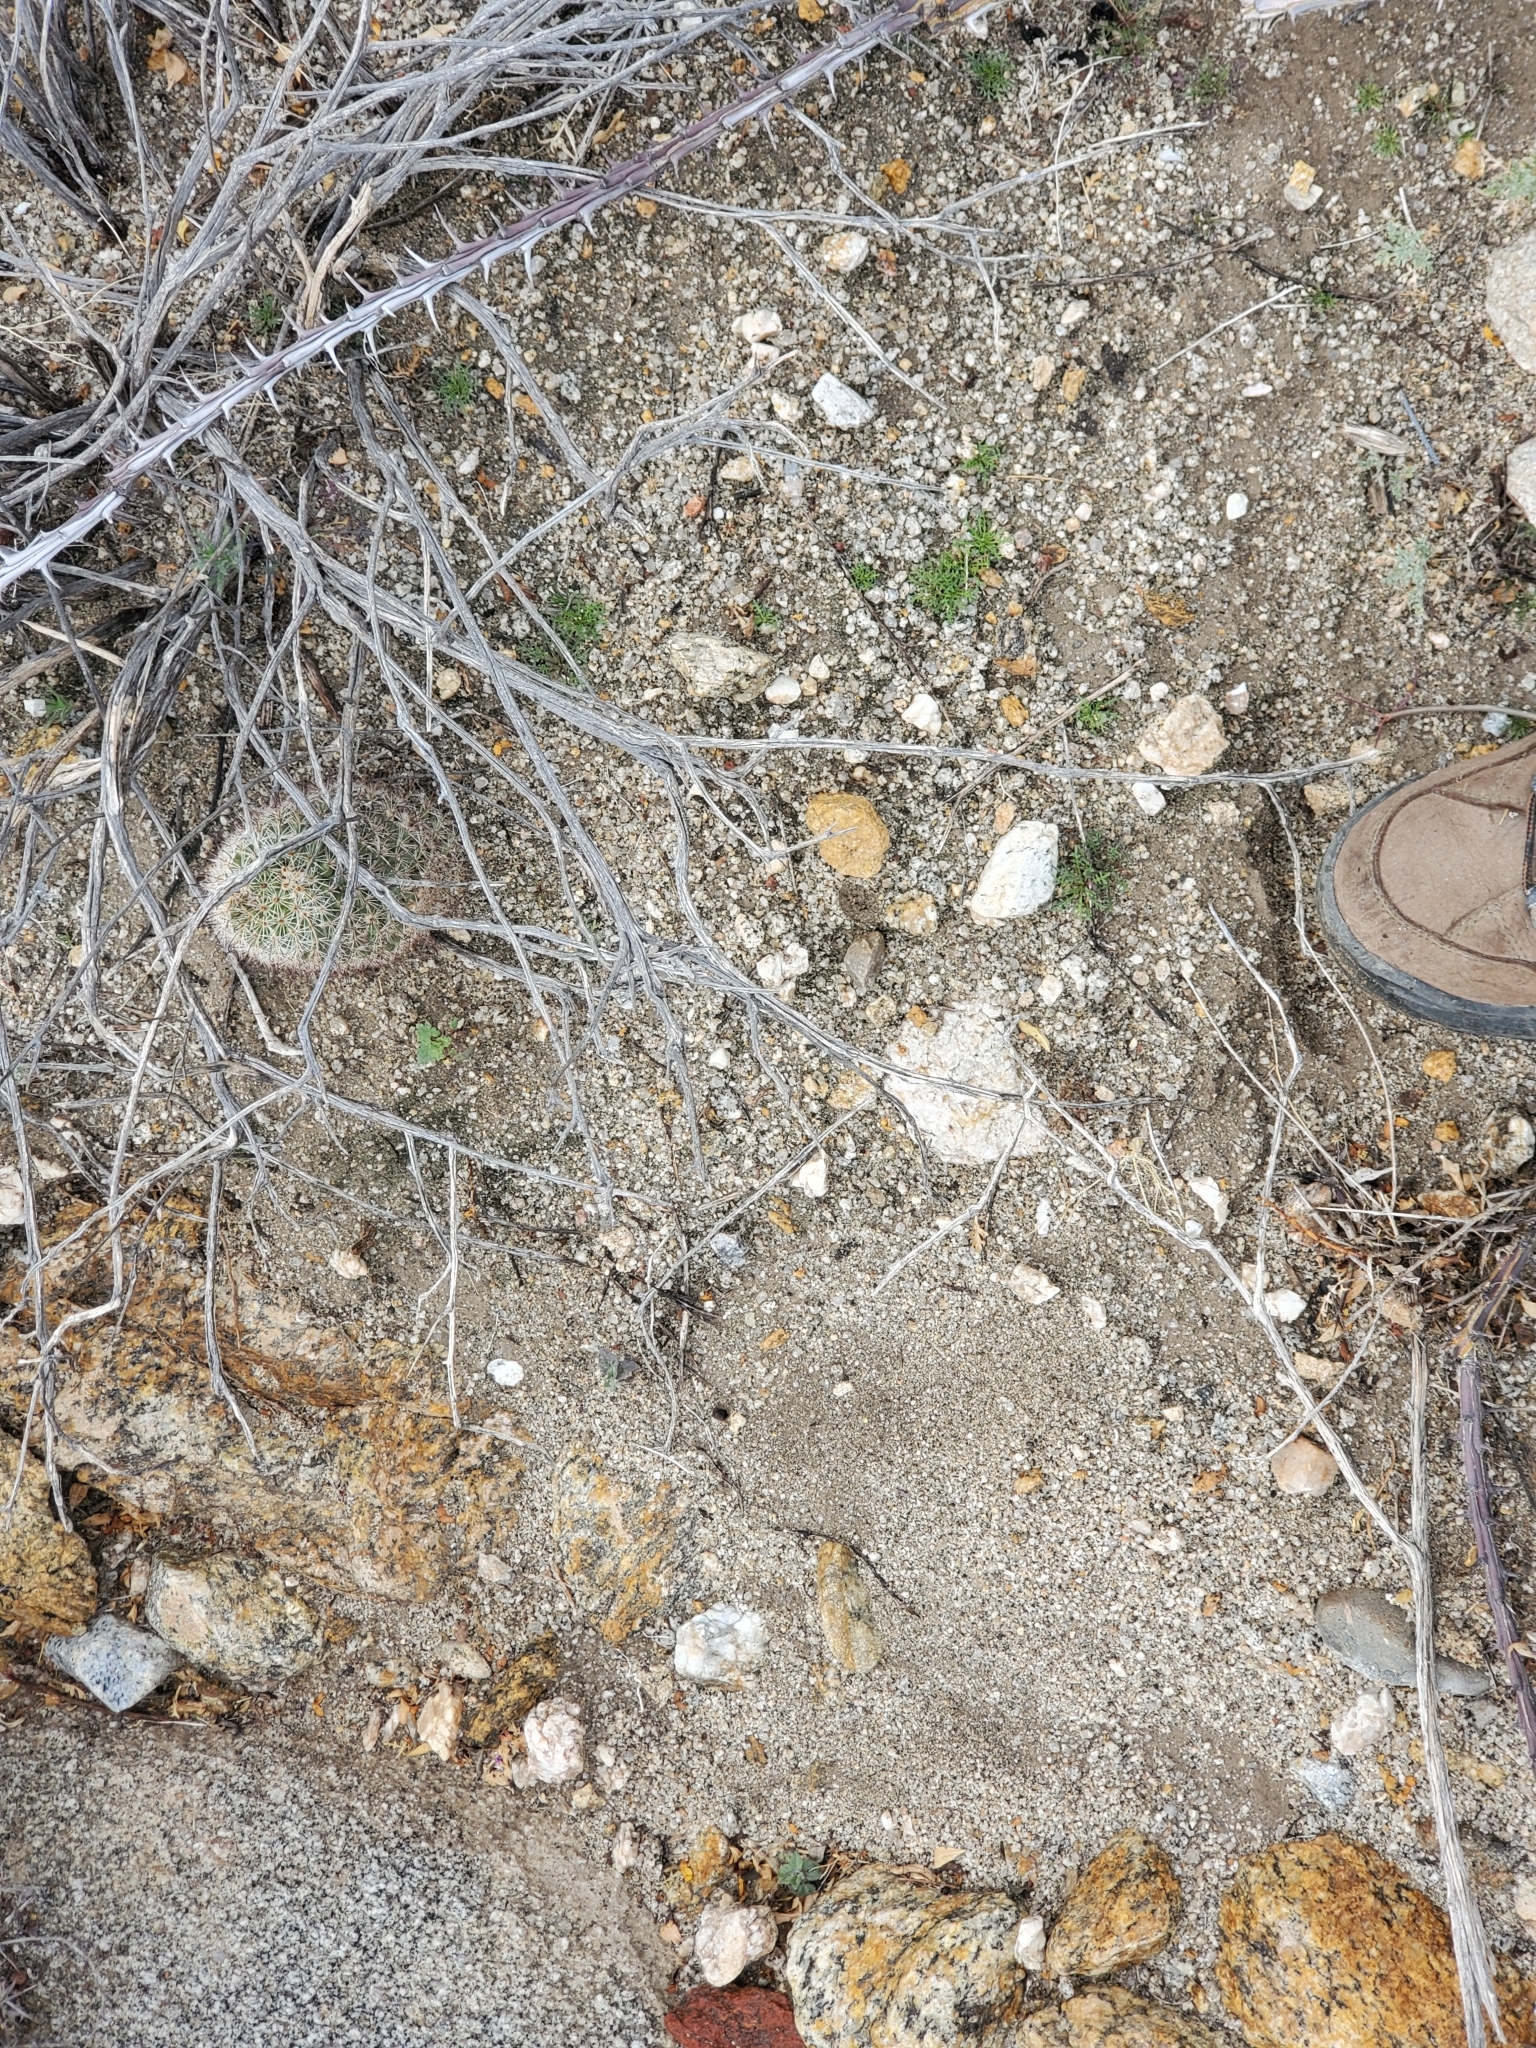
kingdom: Plantae
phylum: Tracheophyta
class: Magnoliopsida
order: Caryophyllales
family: Cactaceae
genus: Cochemiea
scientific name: Cochemiea dioica
